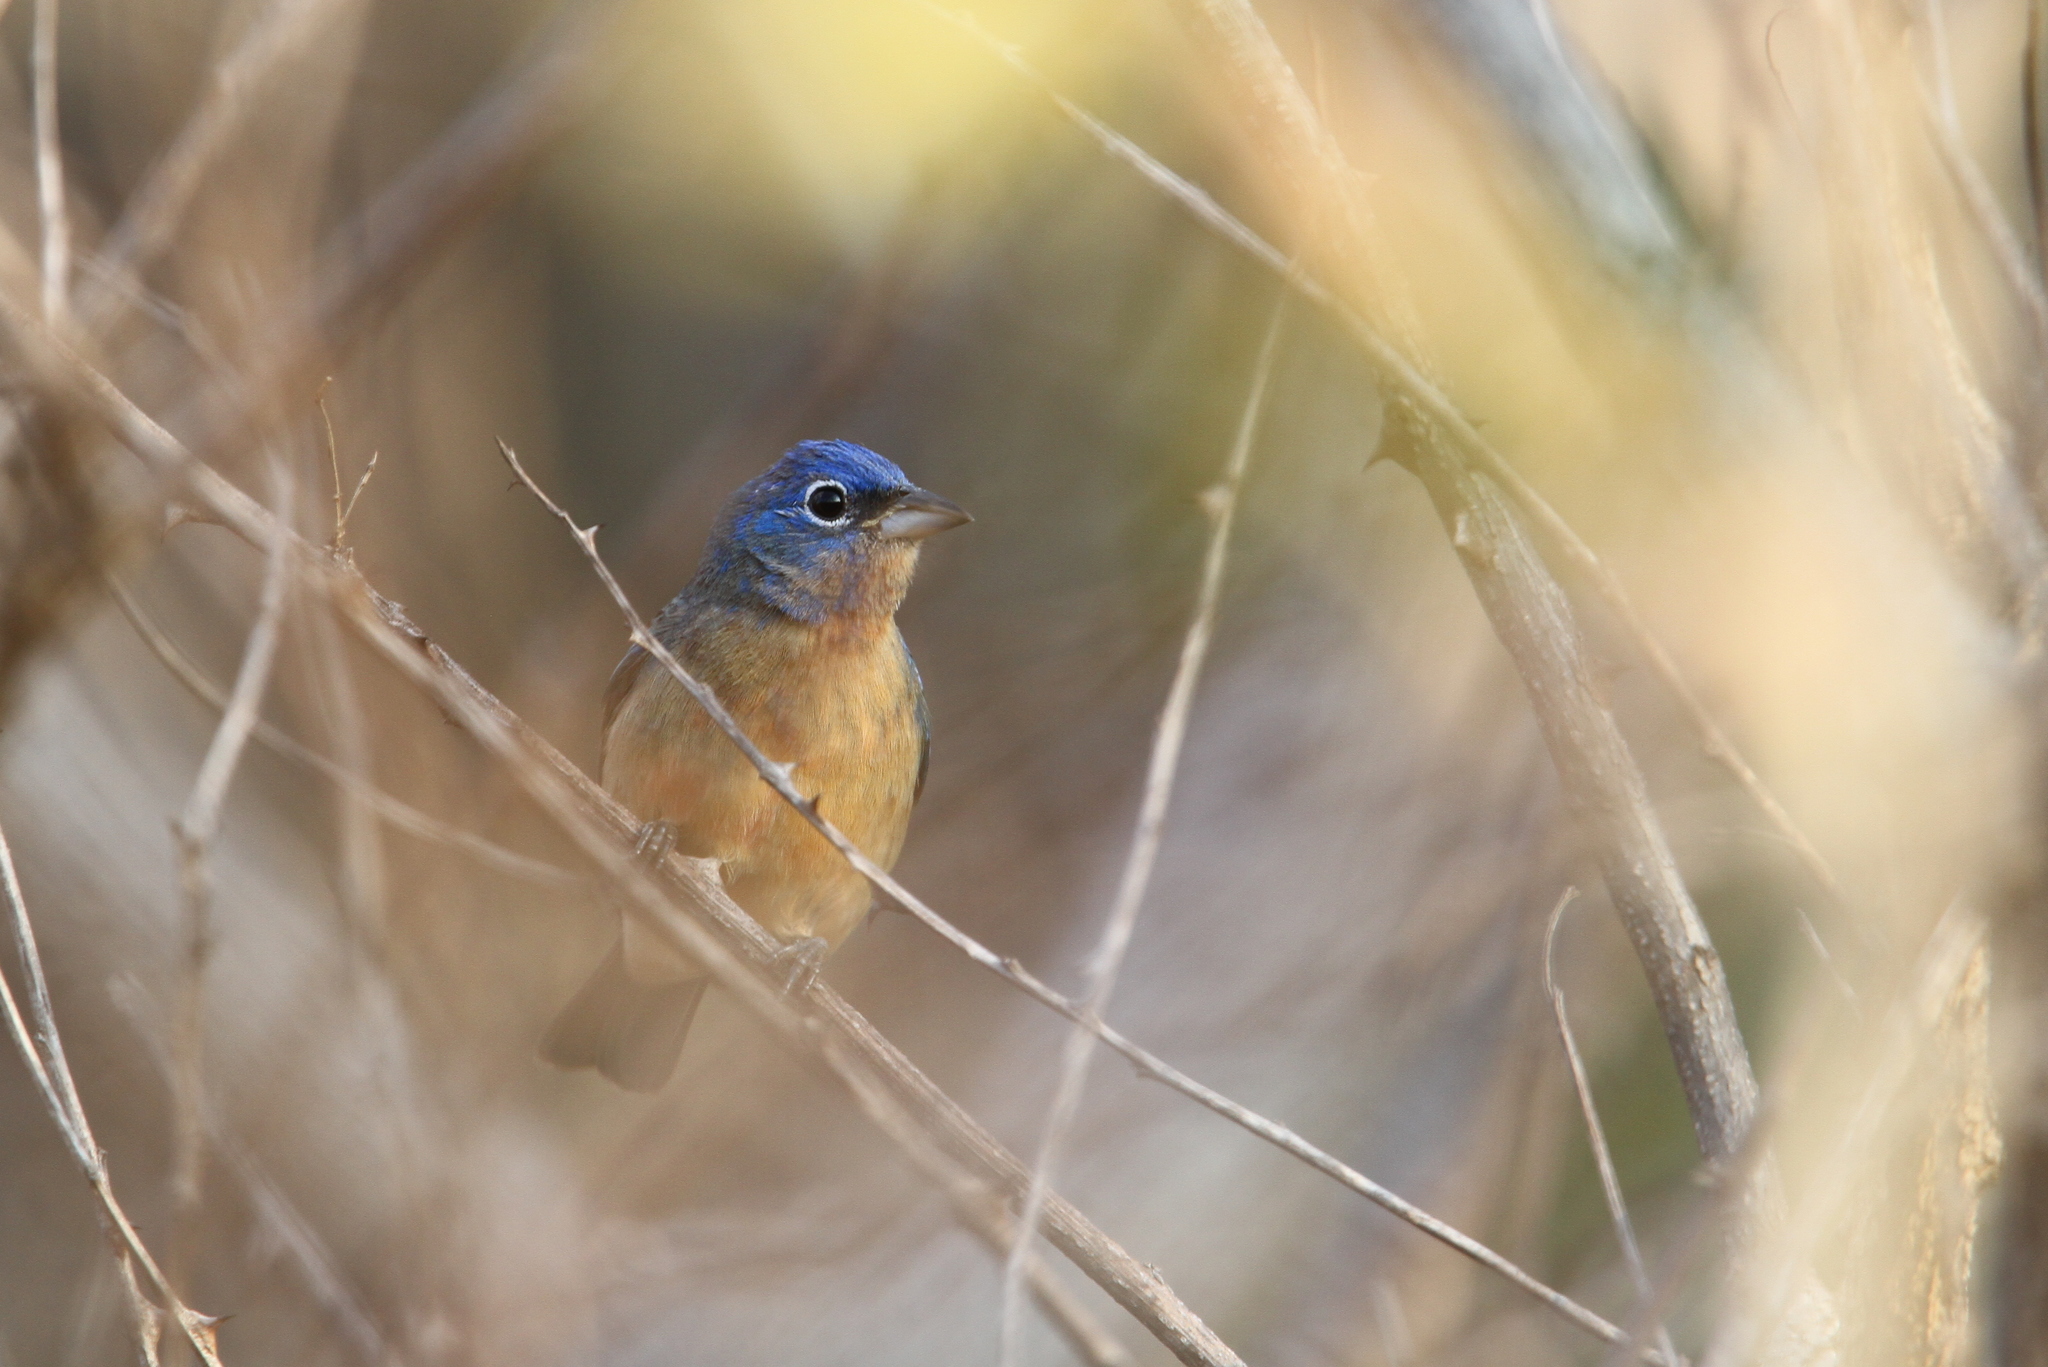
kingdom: Animalia
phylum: Chordata
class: Aves
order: Passeriformes
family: Cardinalidae
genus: Passerina
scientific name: Passerina rositae
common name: Rose-bellied bunting
